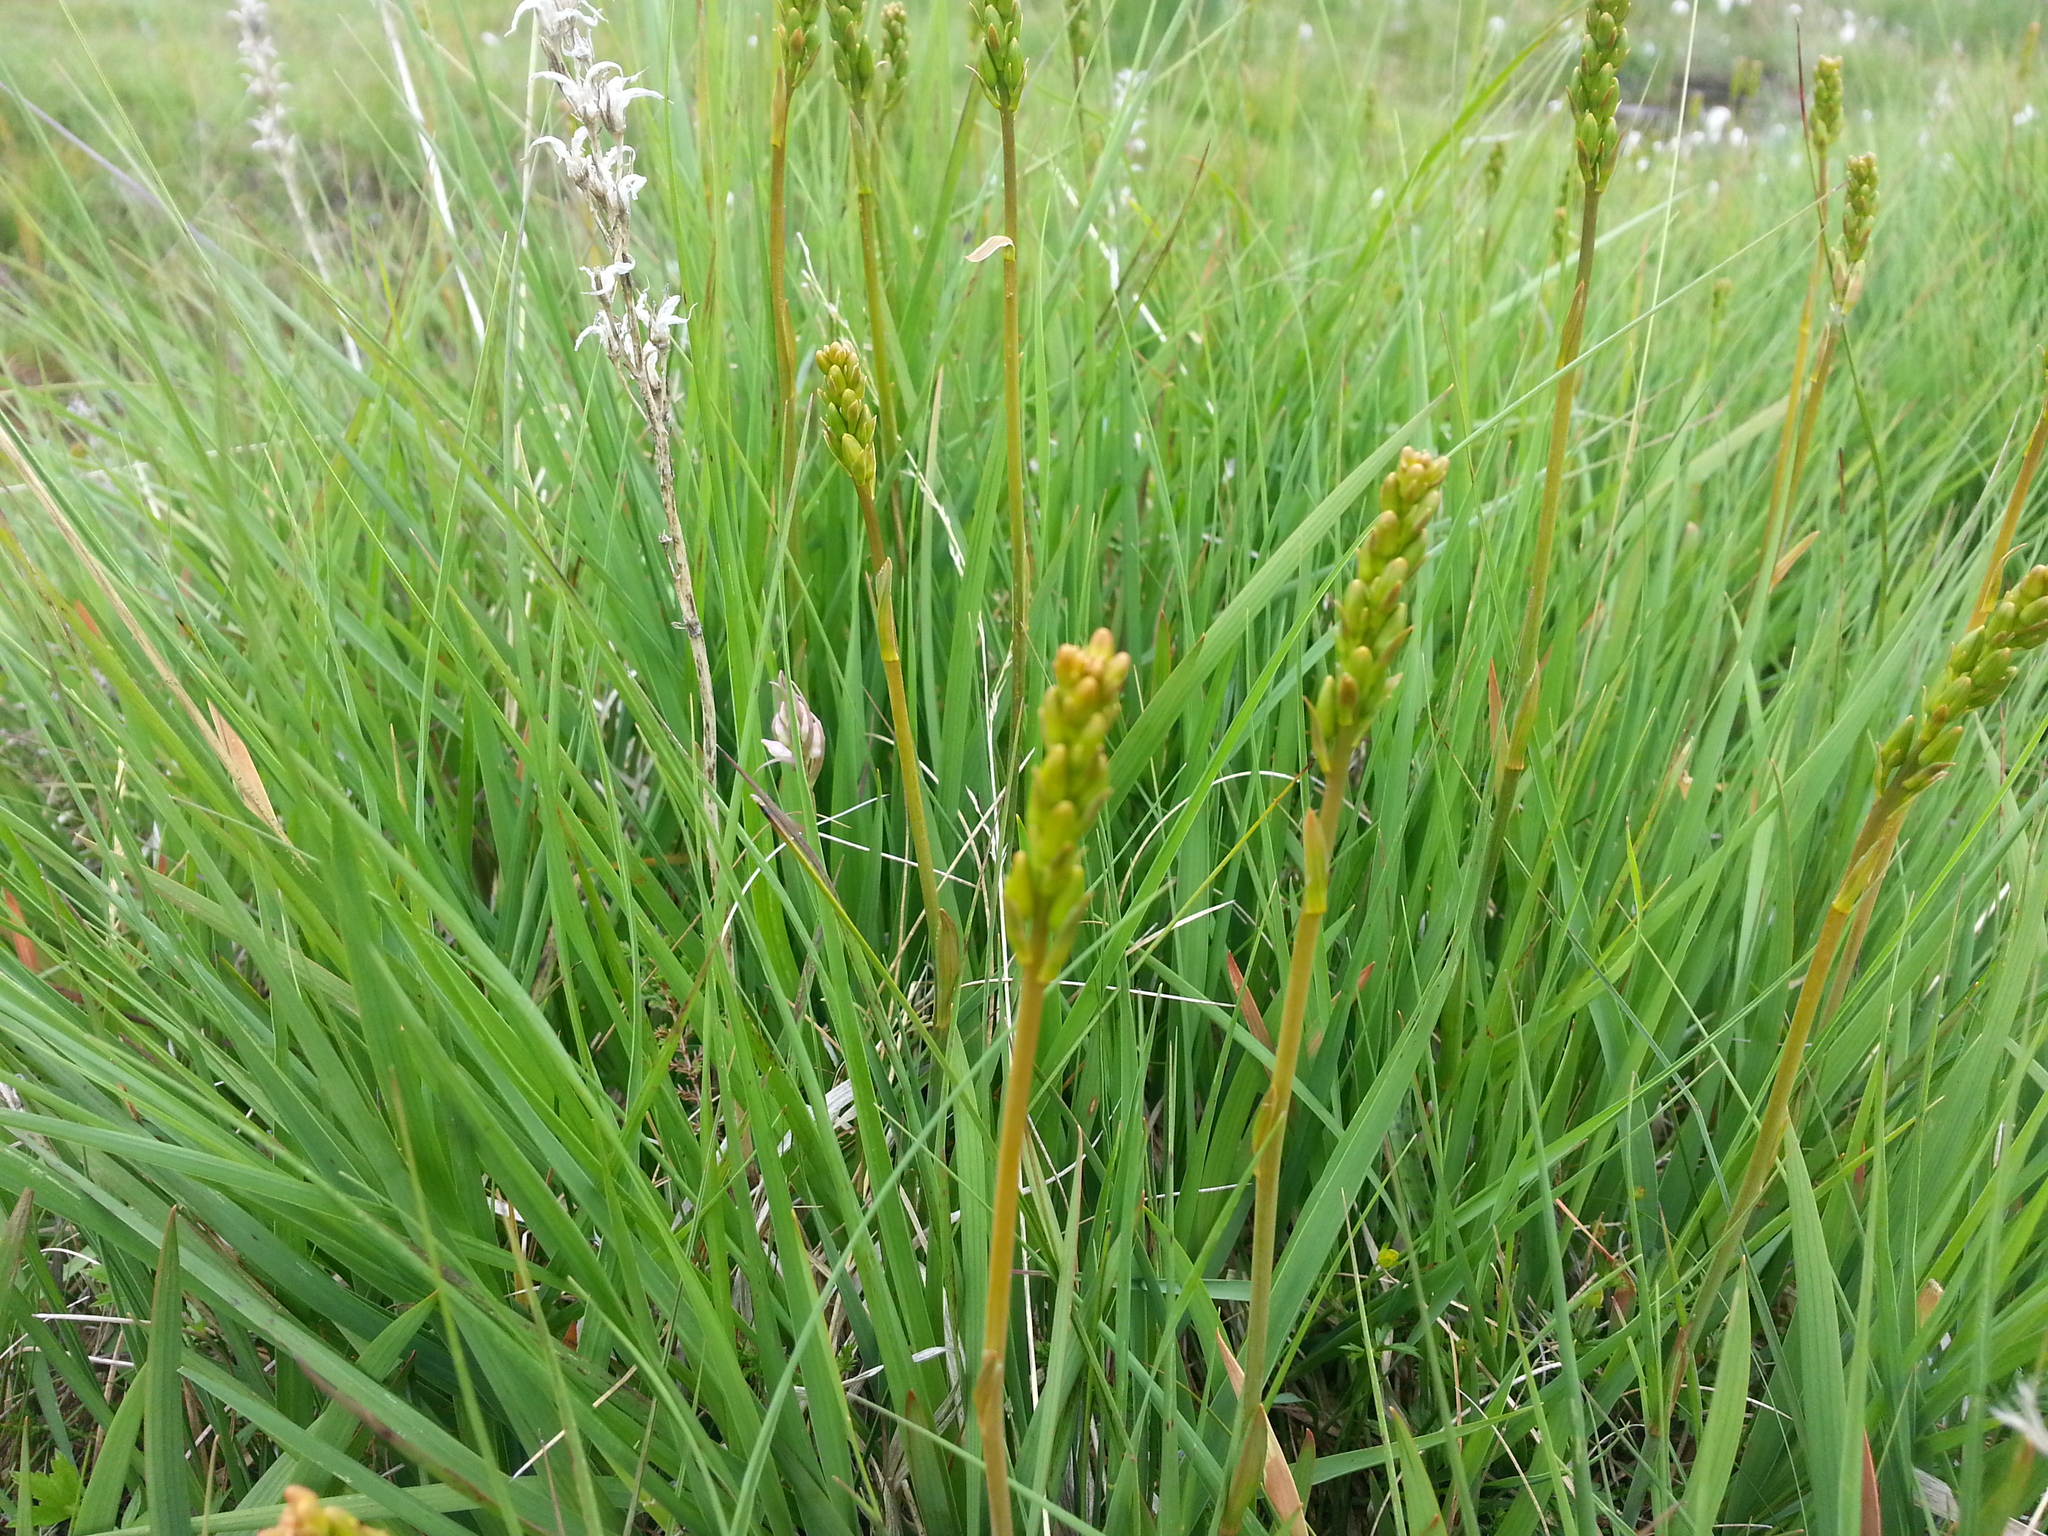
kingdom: Plantae
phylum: Tracheophyta
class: Liliopsida
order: Dioscoreales
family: Nartheciaceae
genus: Narthecium
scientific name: Narthecium ossifragum
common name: Bog asphodel
